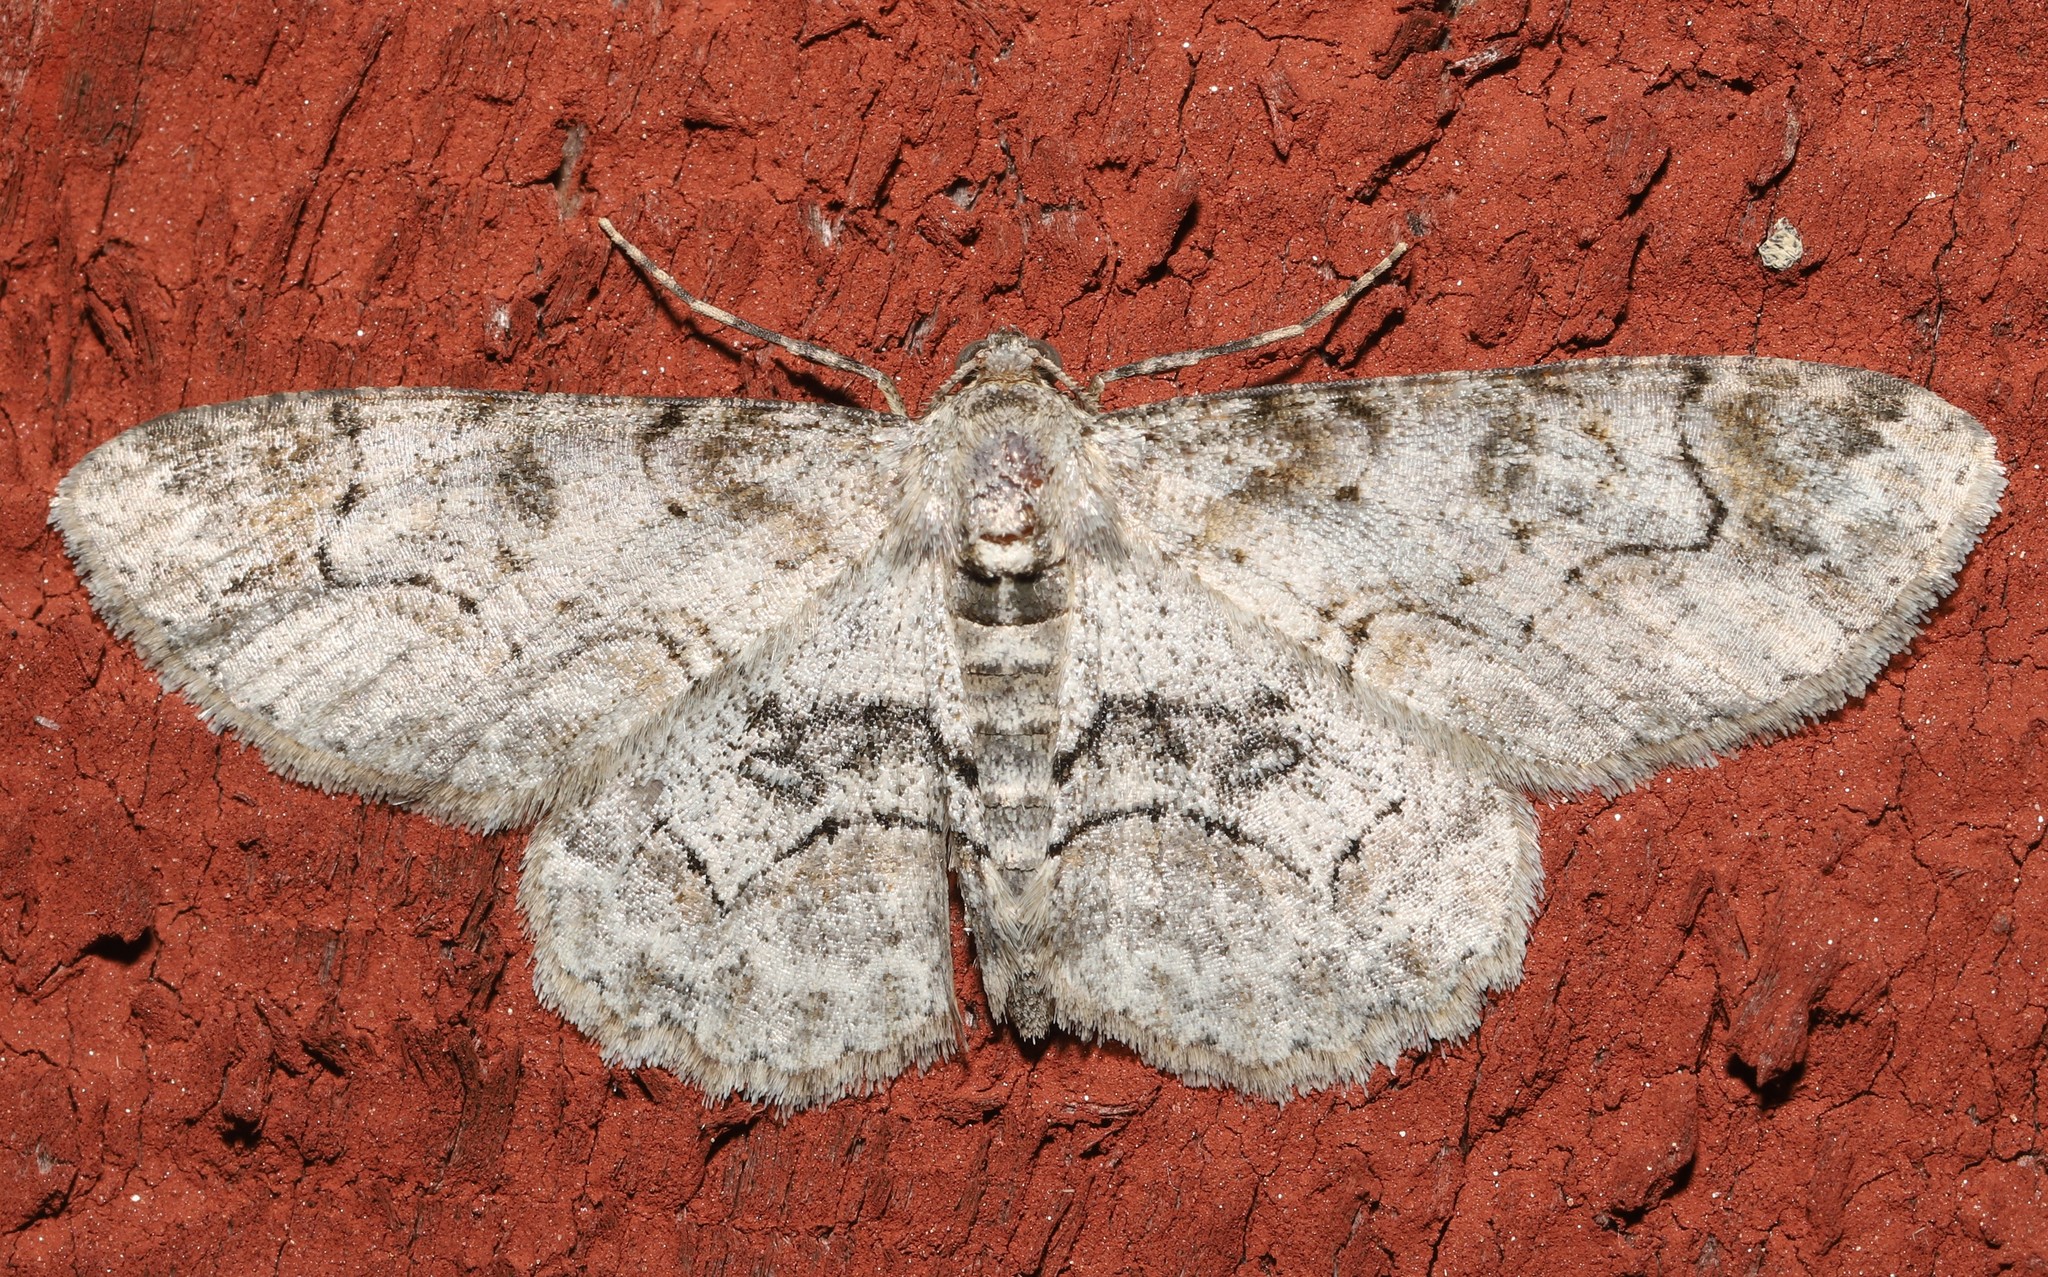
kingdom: Animalia
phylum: Arthropoda
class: Insecta
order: Lepidoptera
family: Geometridae
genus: Iridopsis
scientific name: Iridopsis larvaria
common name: Bent-line gray
